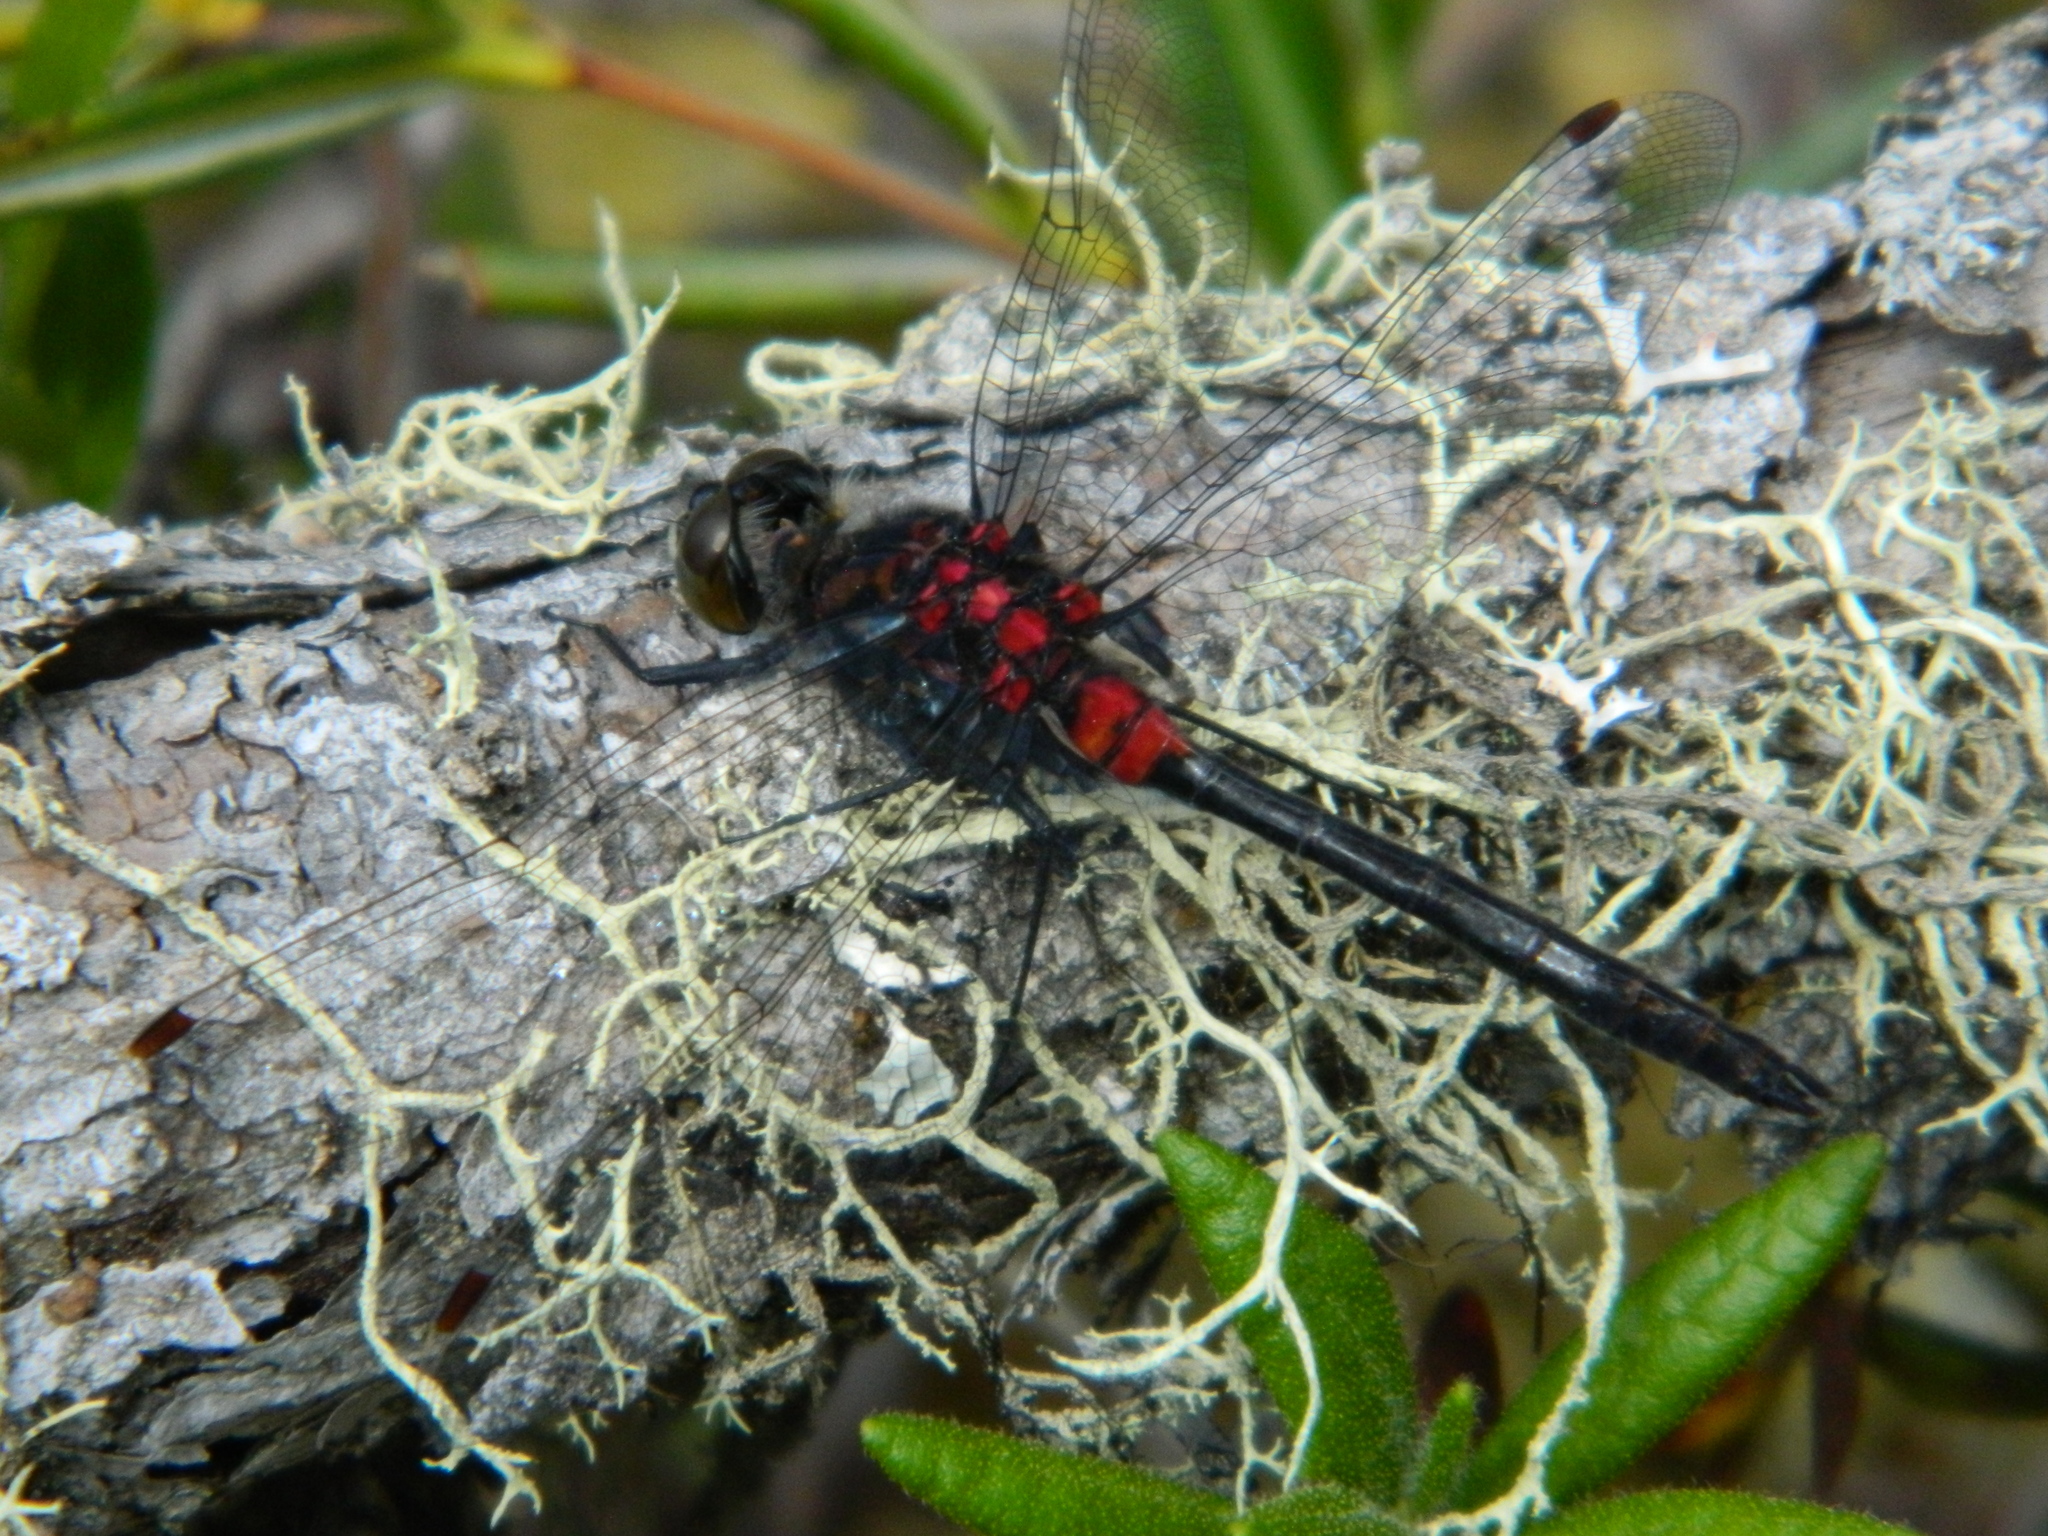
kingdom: Animalia
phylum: Arthropoda
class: Insecta
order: Odonata
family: Libellulidae
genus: Leucorrhinia
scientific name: Leucorrhinia glacialis
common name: Crimson-ringed whiteface
